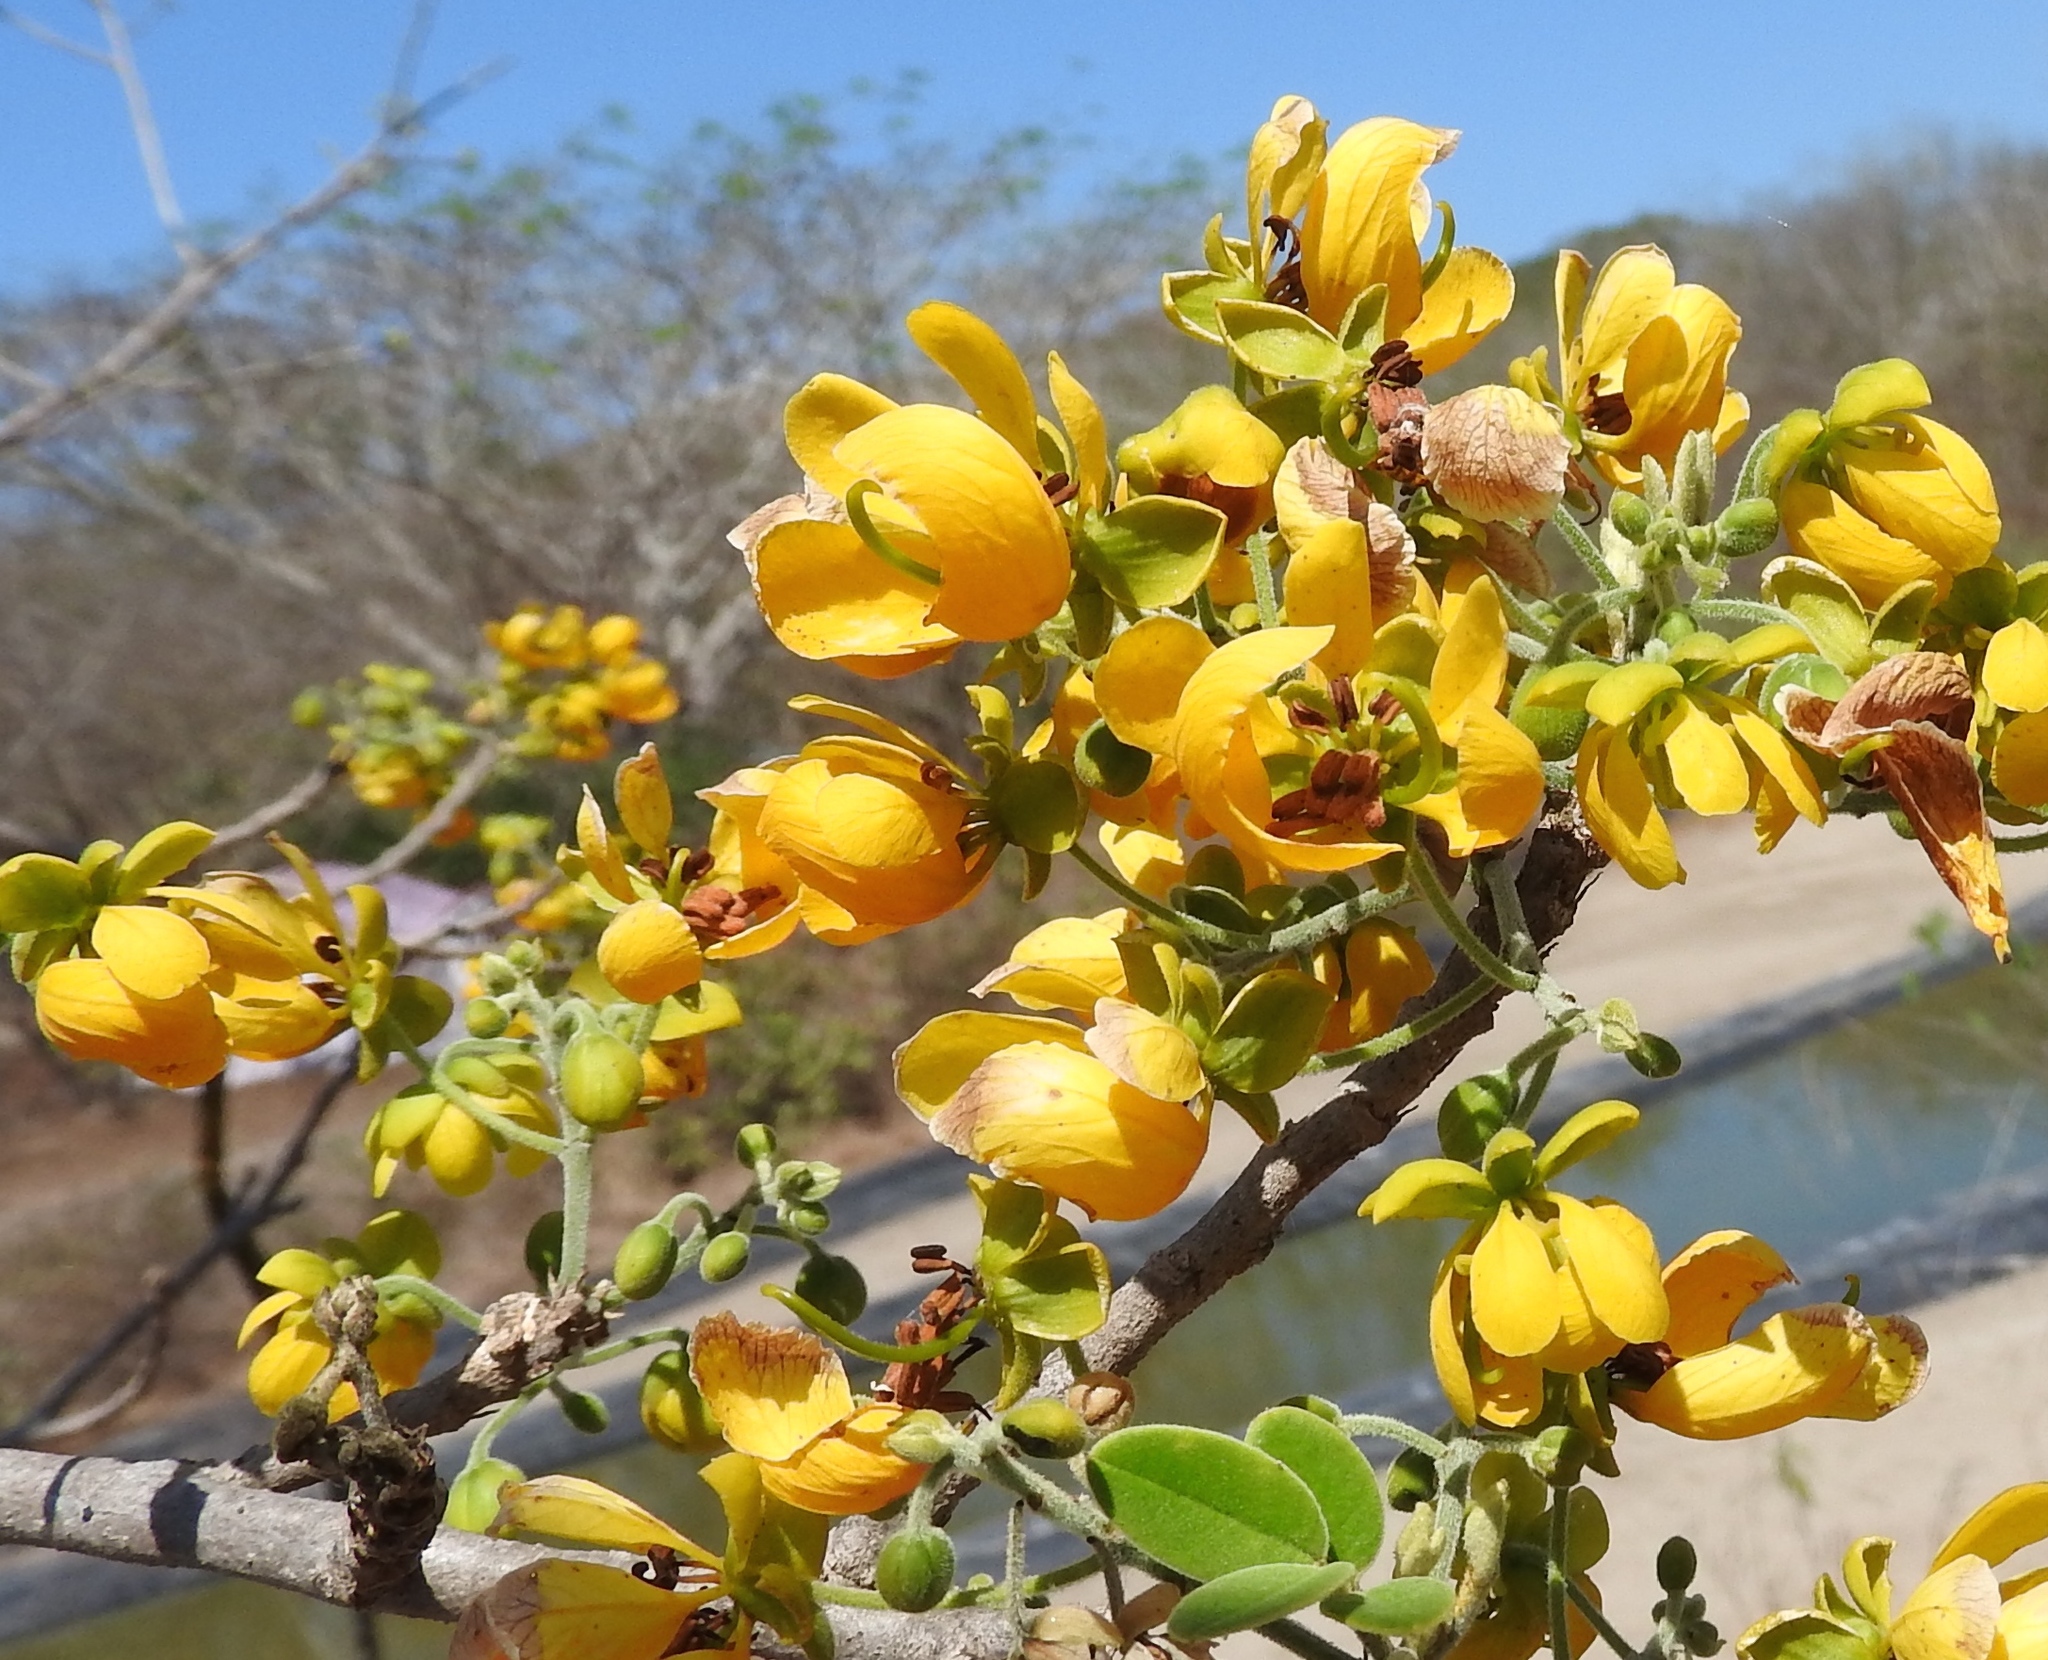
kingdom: Plantae
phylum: Tracheophyta
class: Magnoliopsida
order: Fabales
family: Fabaceae
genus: Senna
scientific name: Senna atomaria
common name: Flor de san jose
